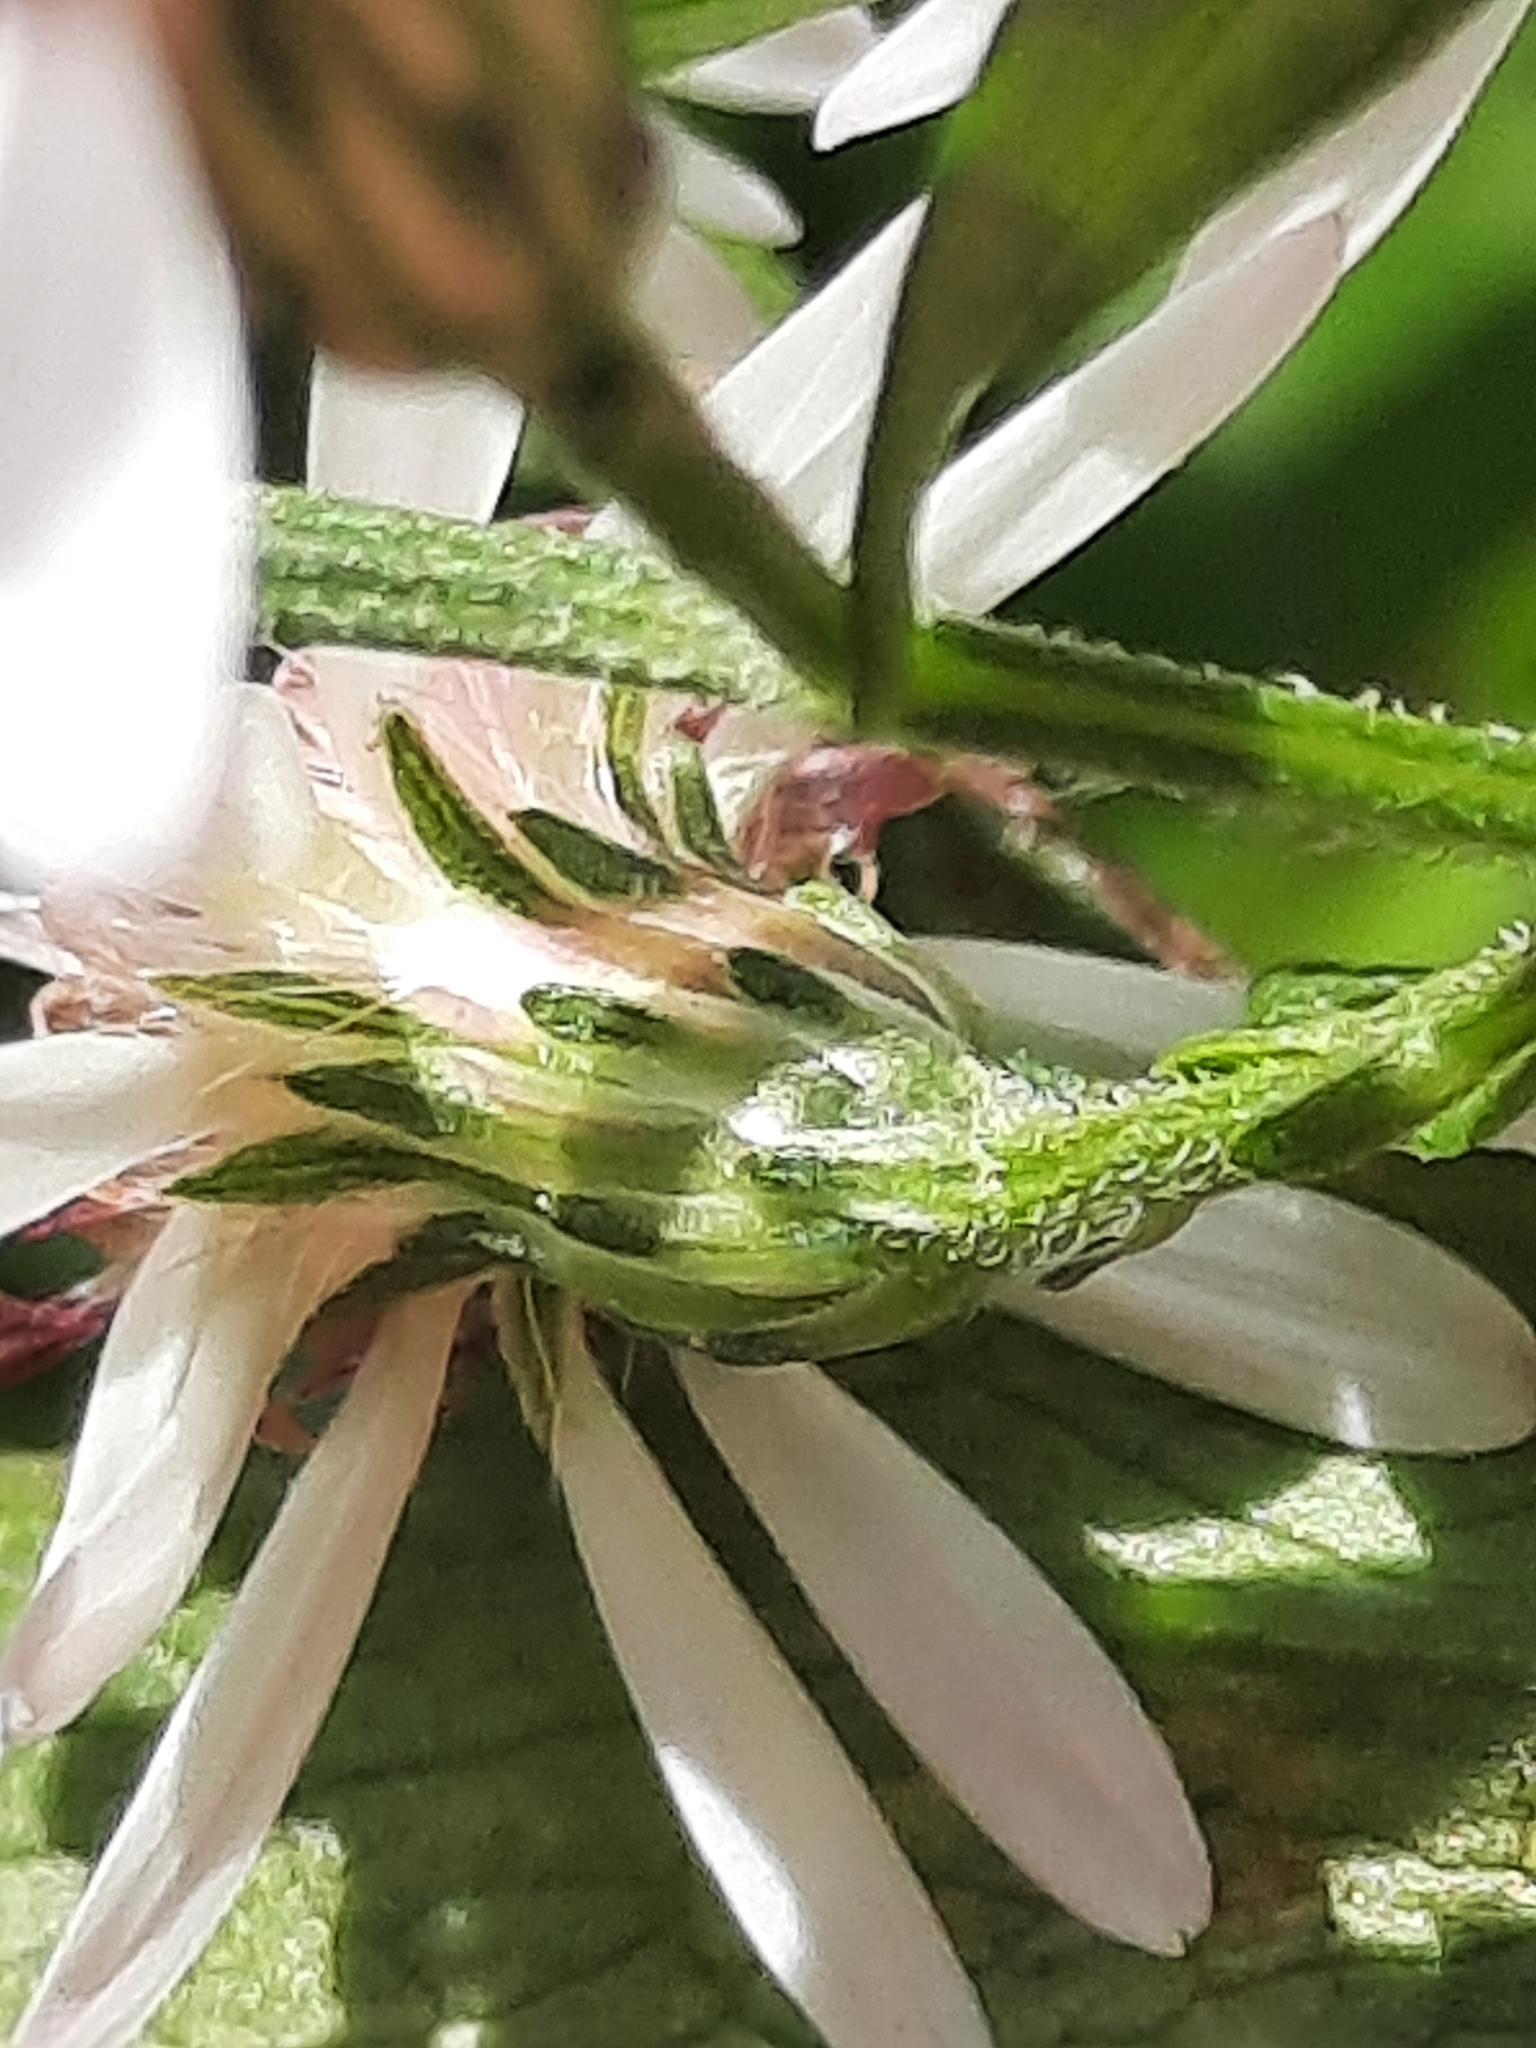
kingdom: Plantae
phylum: Tracheophyta
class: Magnoliopsida
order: Asterales
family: Asteraceae
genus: Symphyotrichum
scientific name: Symphyotrichum lateriflorum
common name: Calico aster
